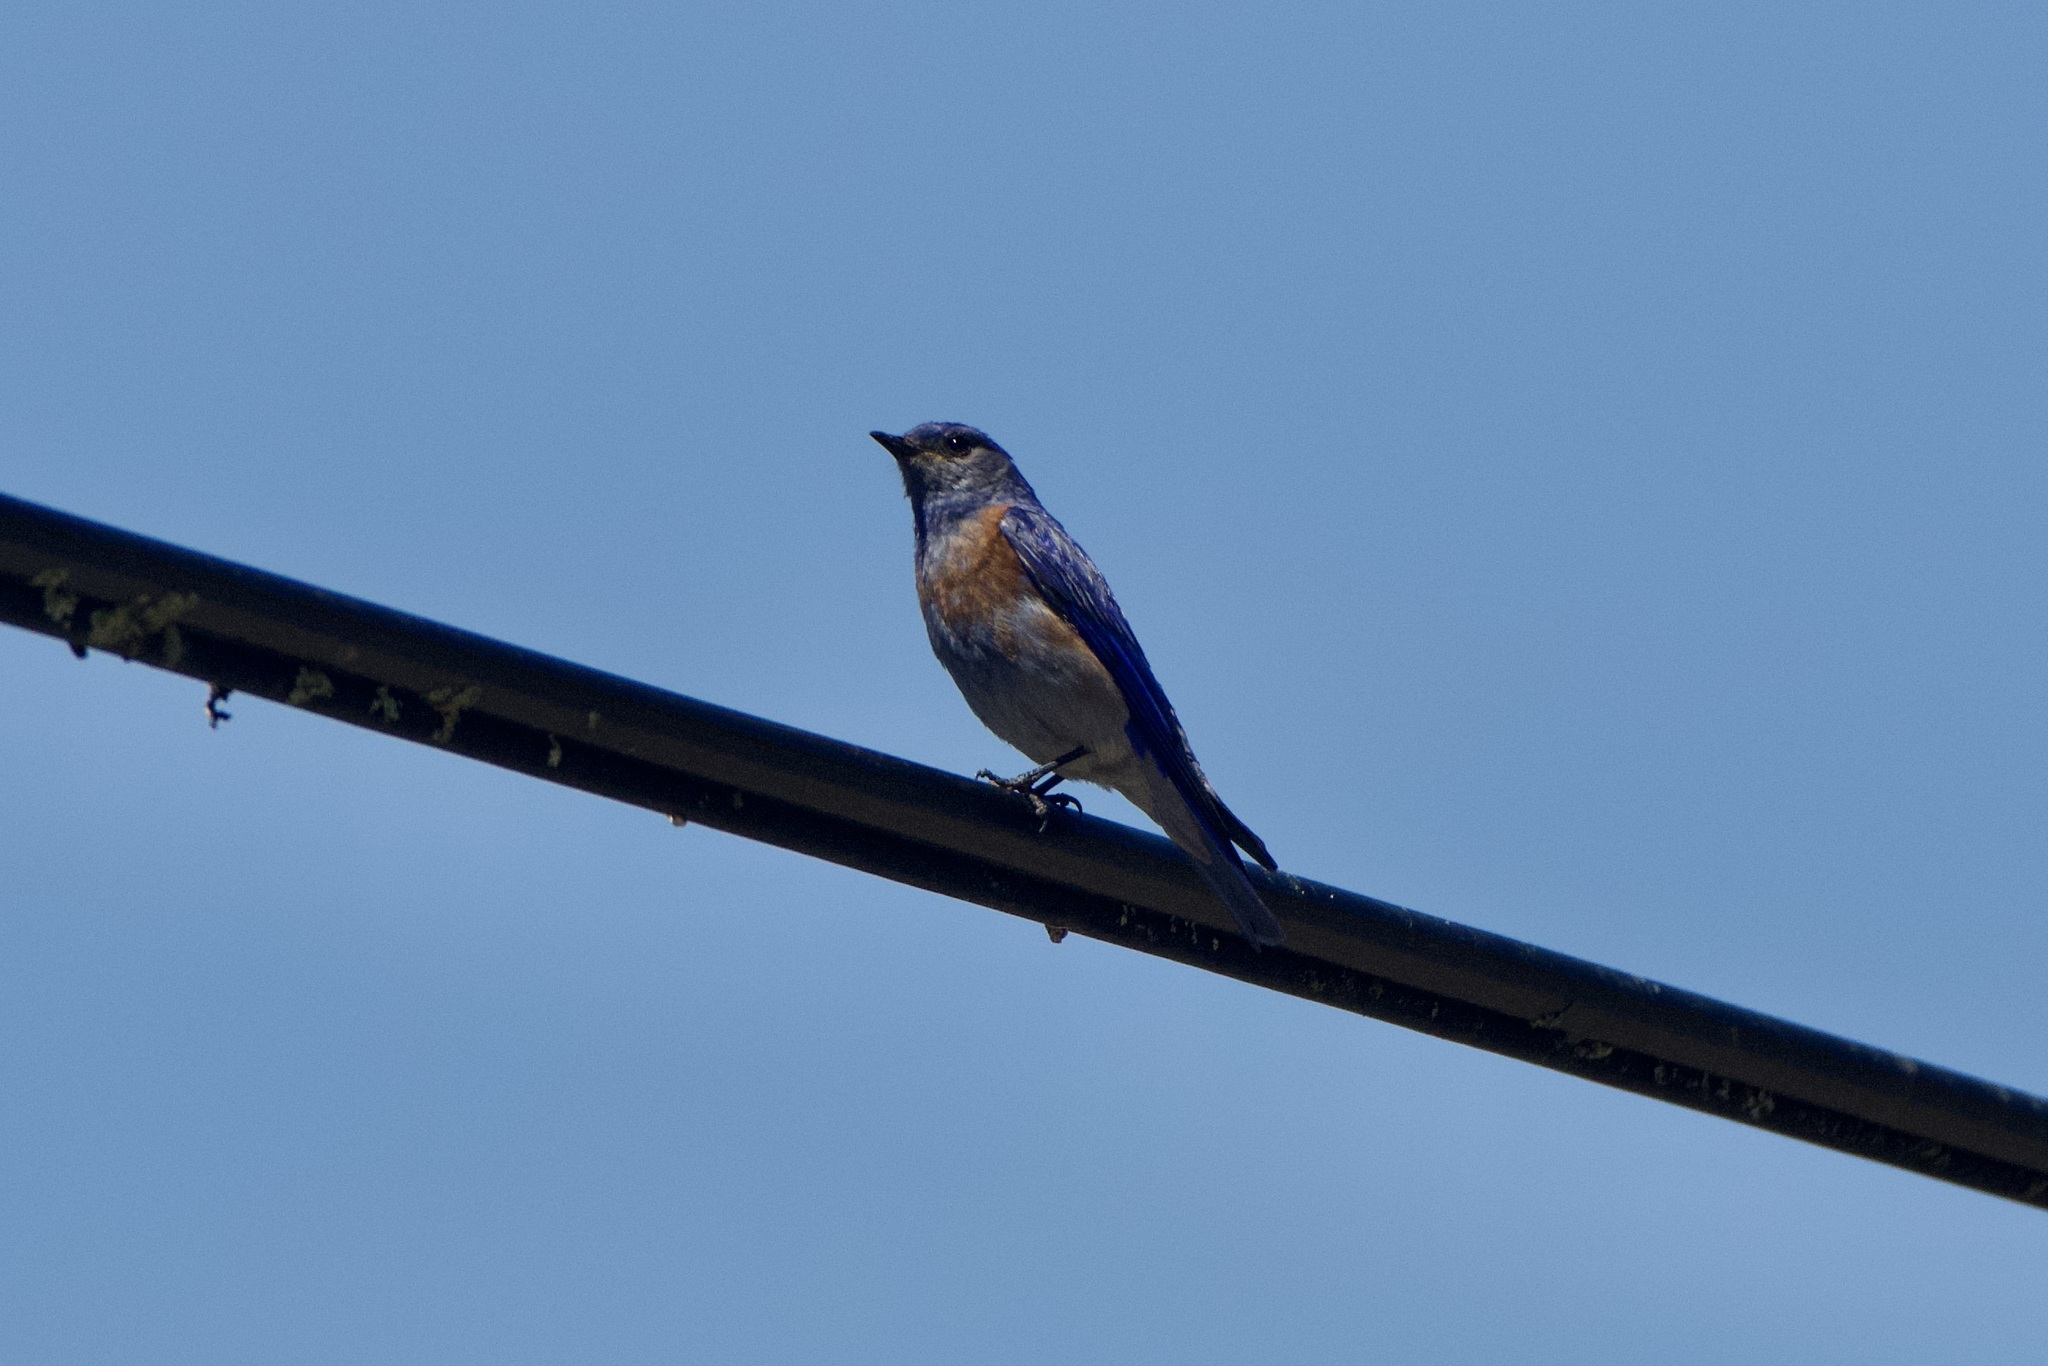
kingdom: Animalia
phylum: Chordata
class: Aves
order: Passeriformes
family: Turdidae
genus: Sialia
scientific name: Sialia mexicana
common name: Western bluebird
